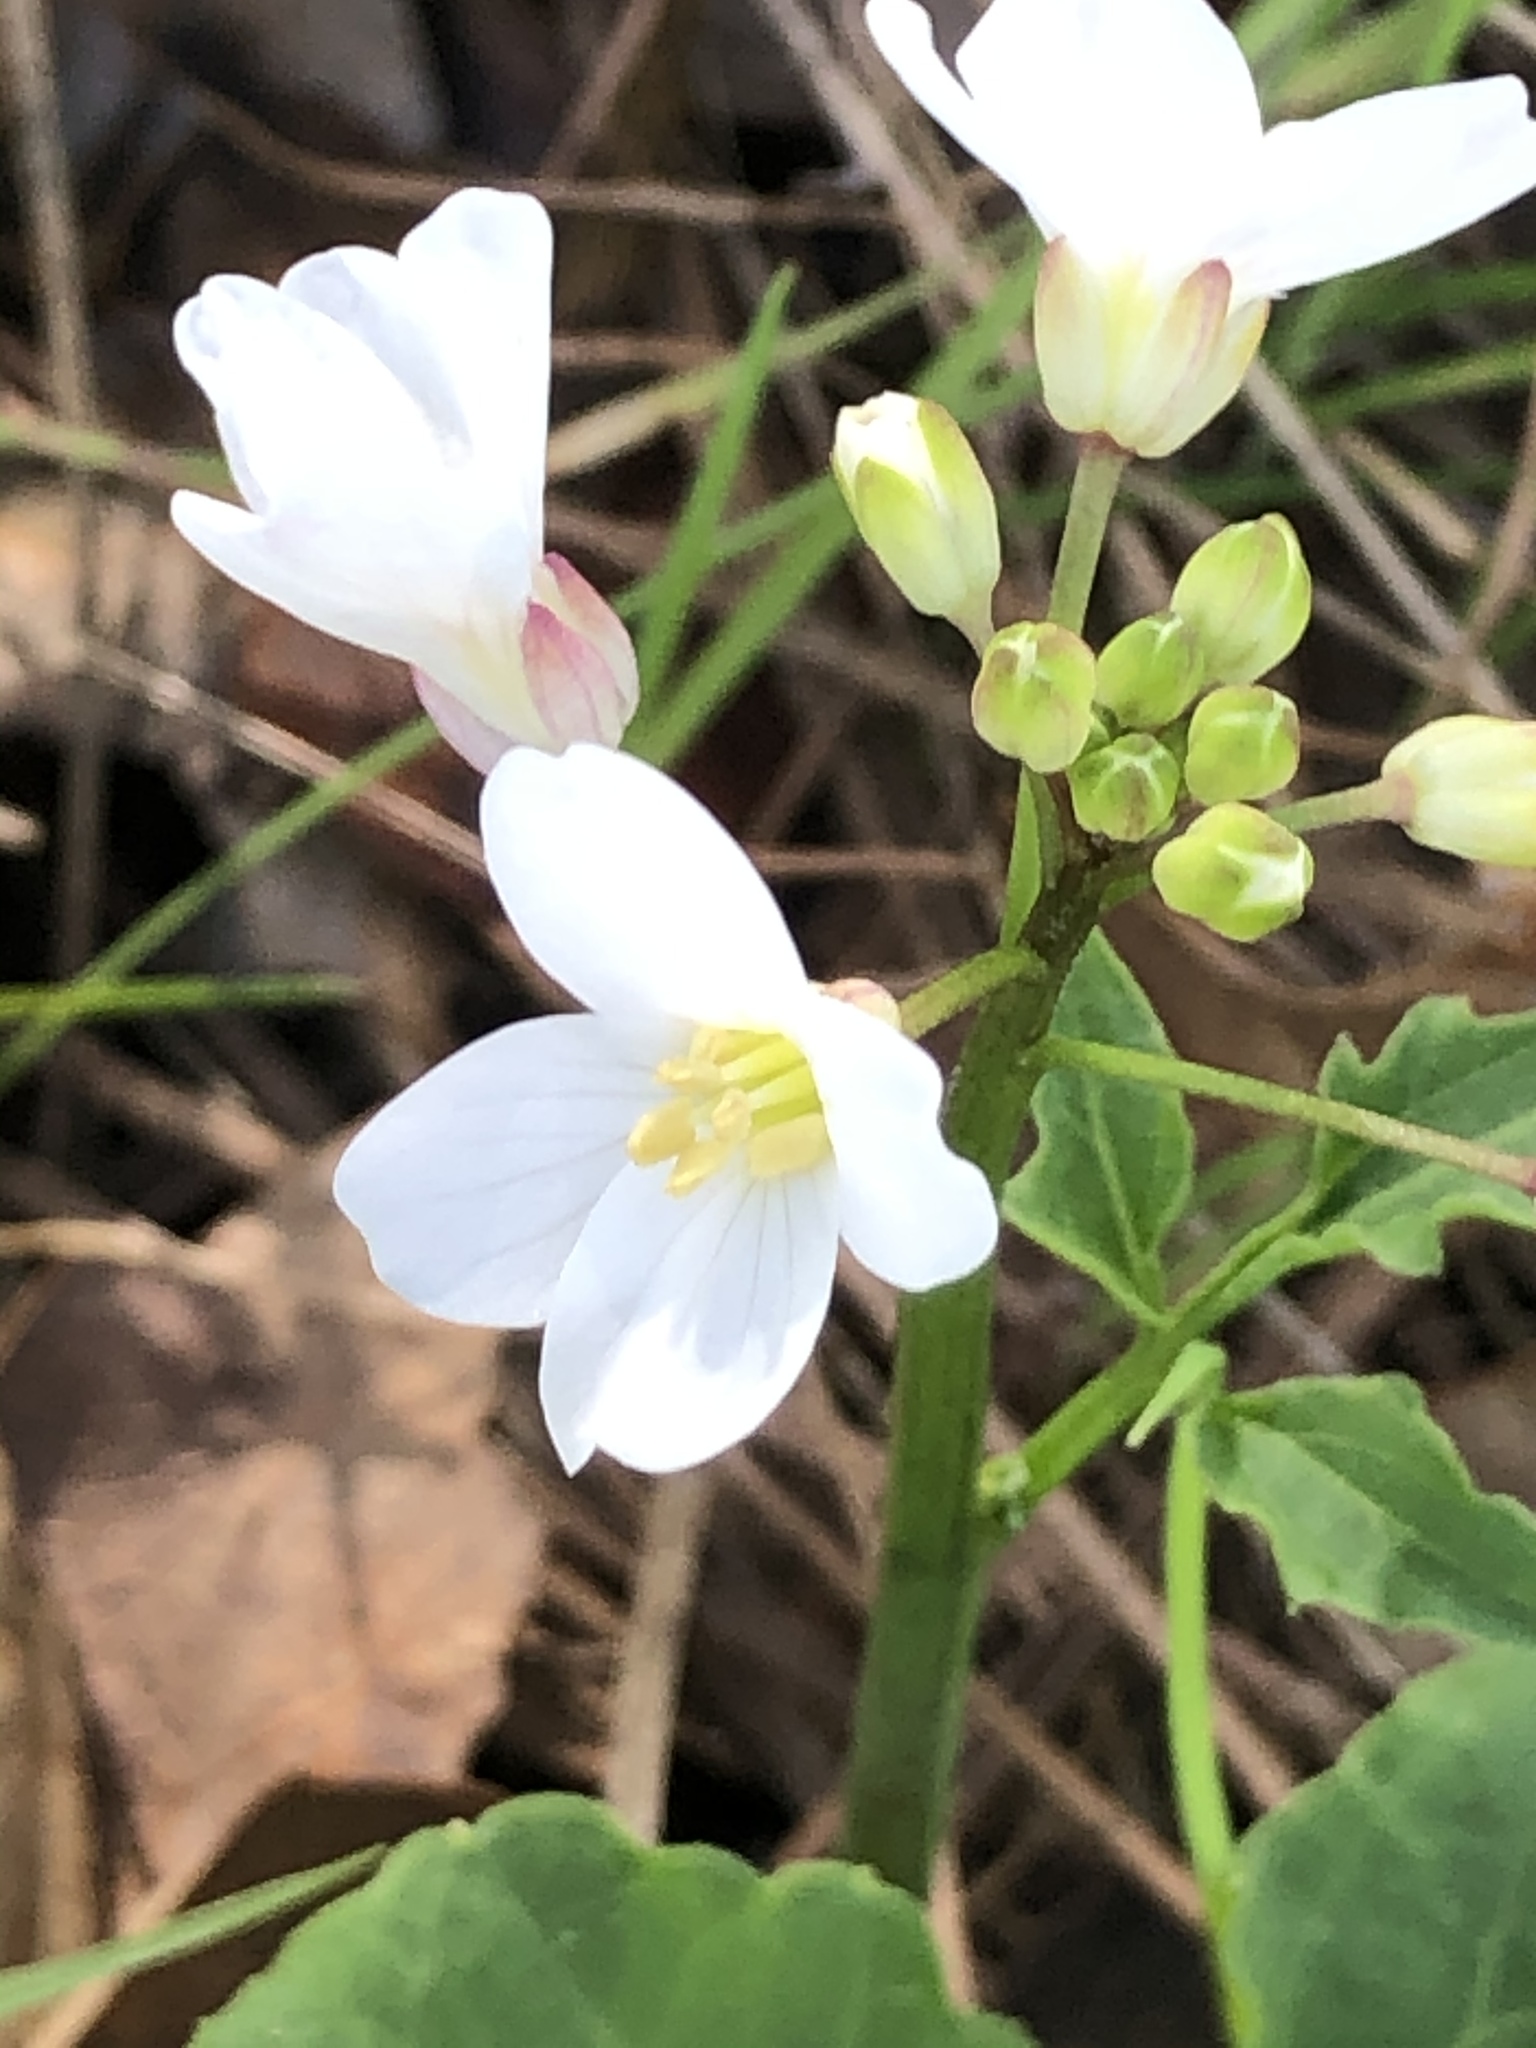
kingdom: Plantae
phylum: Tracheophyta
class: Magnoliopsida
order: Brassicales
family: Brassicaceae
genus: Cardamine
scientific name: Cardamine californica
